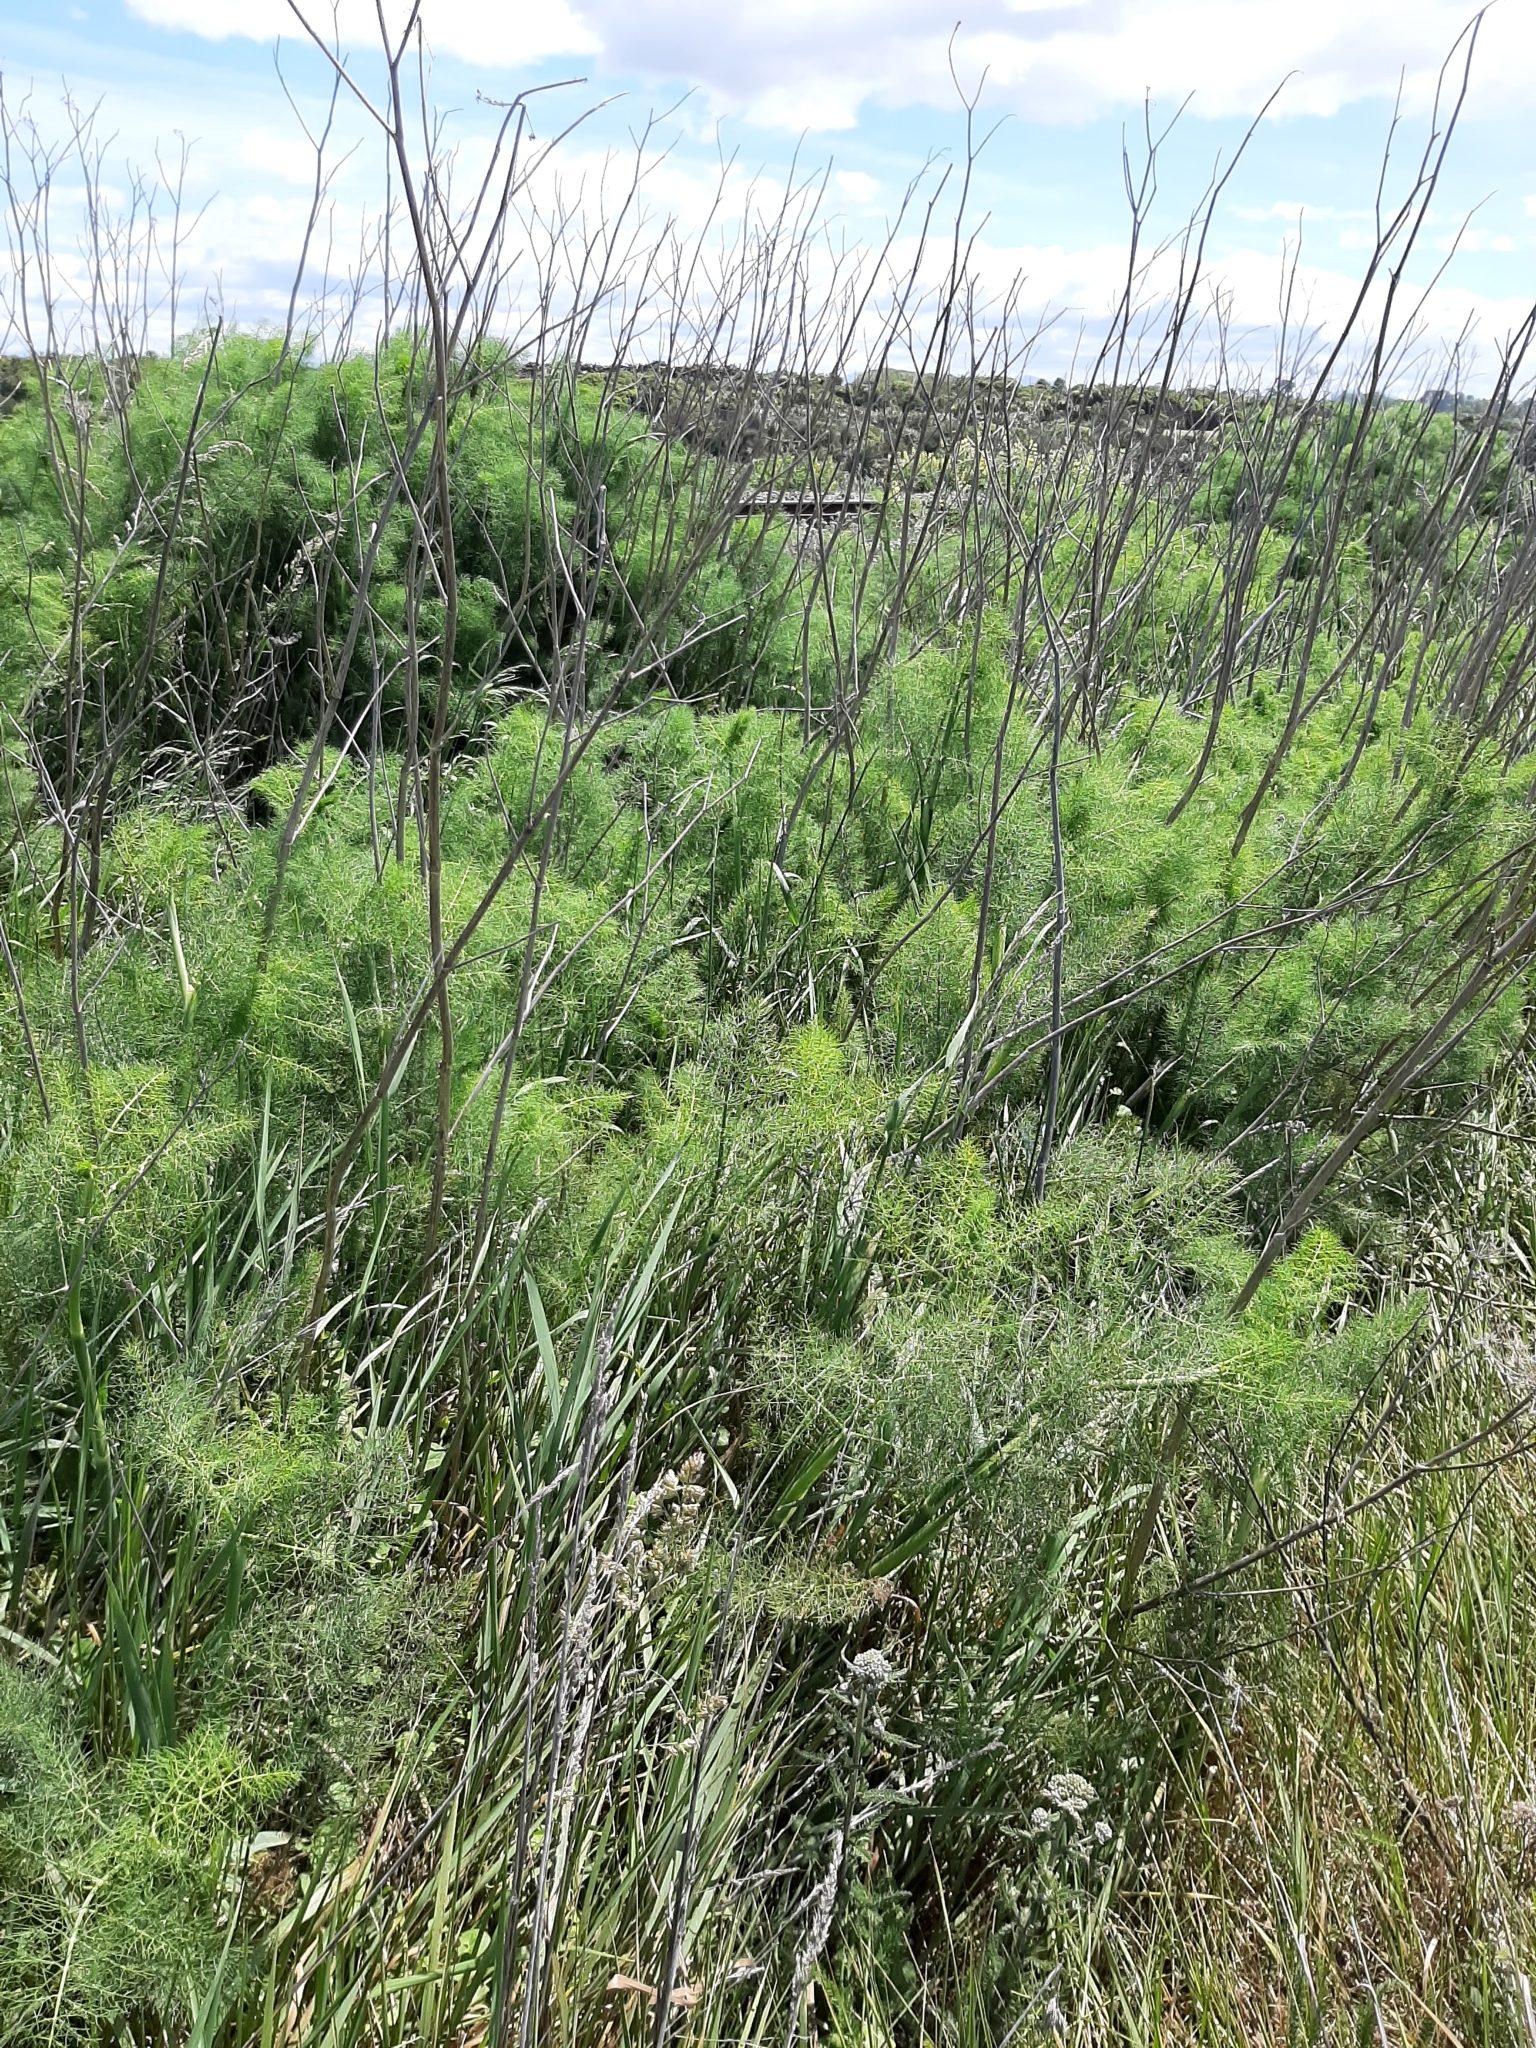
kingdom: Plantae
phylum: Tracheophyta
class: Magnoliopsida
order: Apiales
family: Apiaceae
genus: Foeniculum
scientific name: Foeniculum vulgare
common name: Fennel
